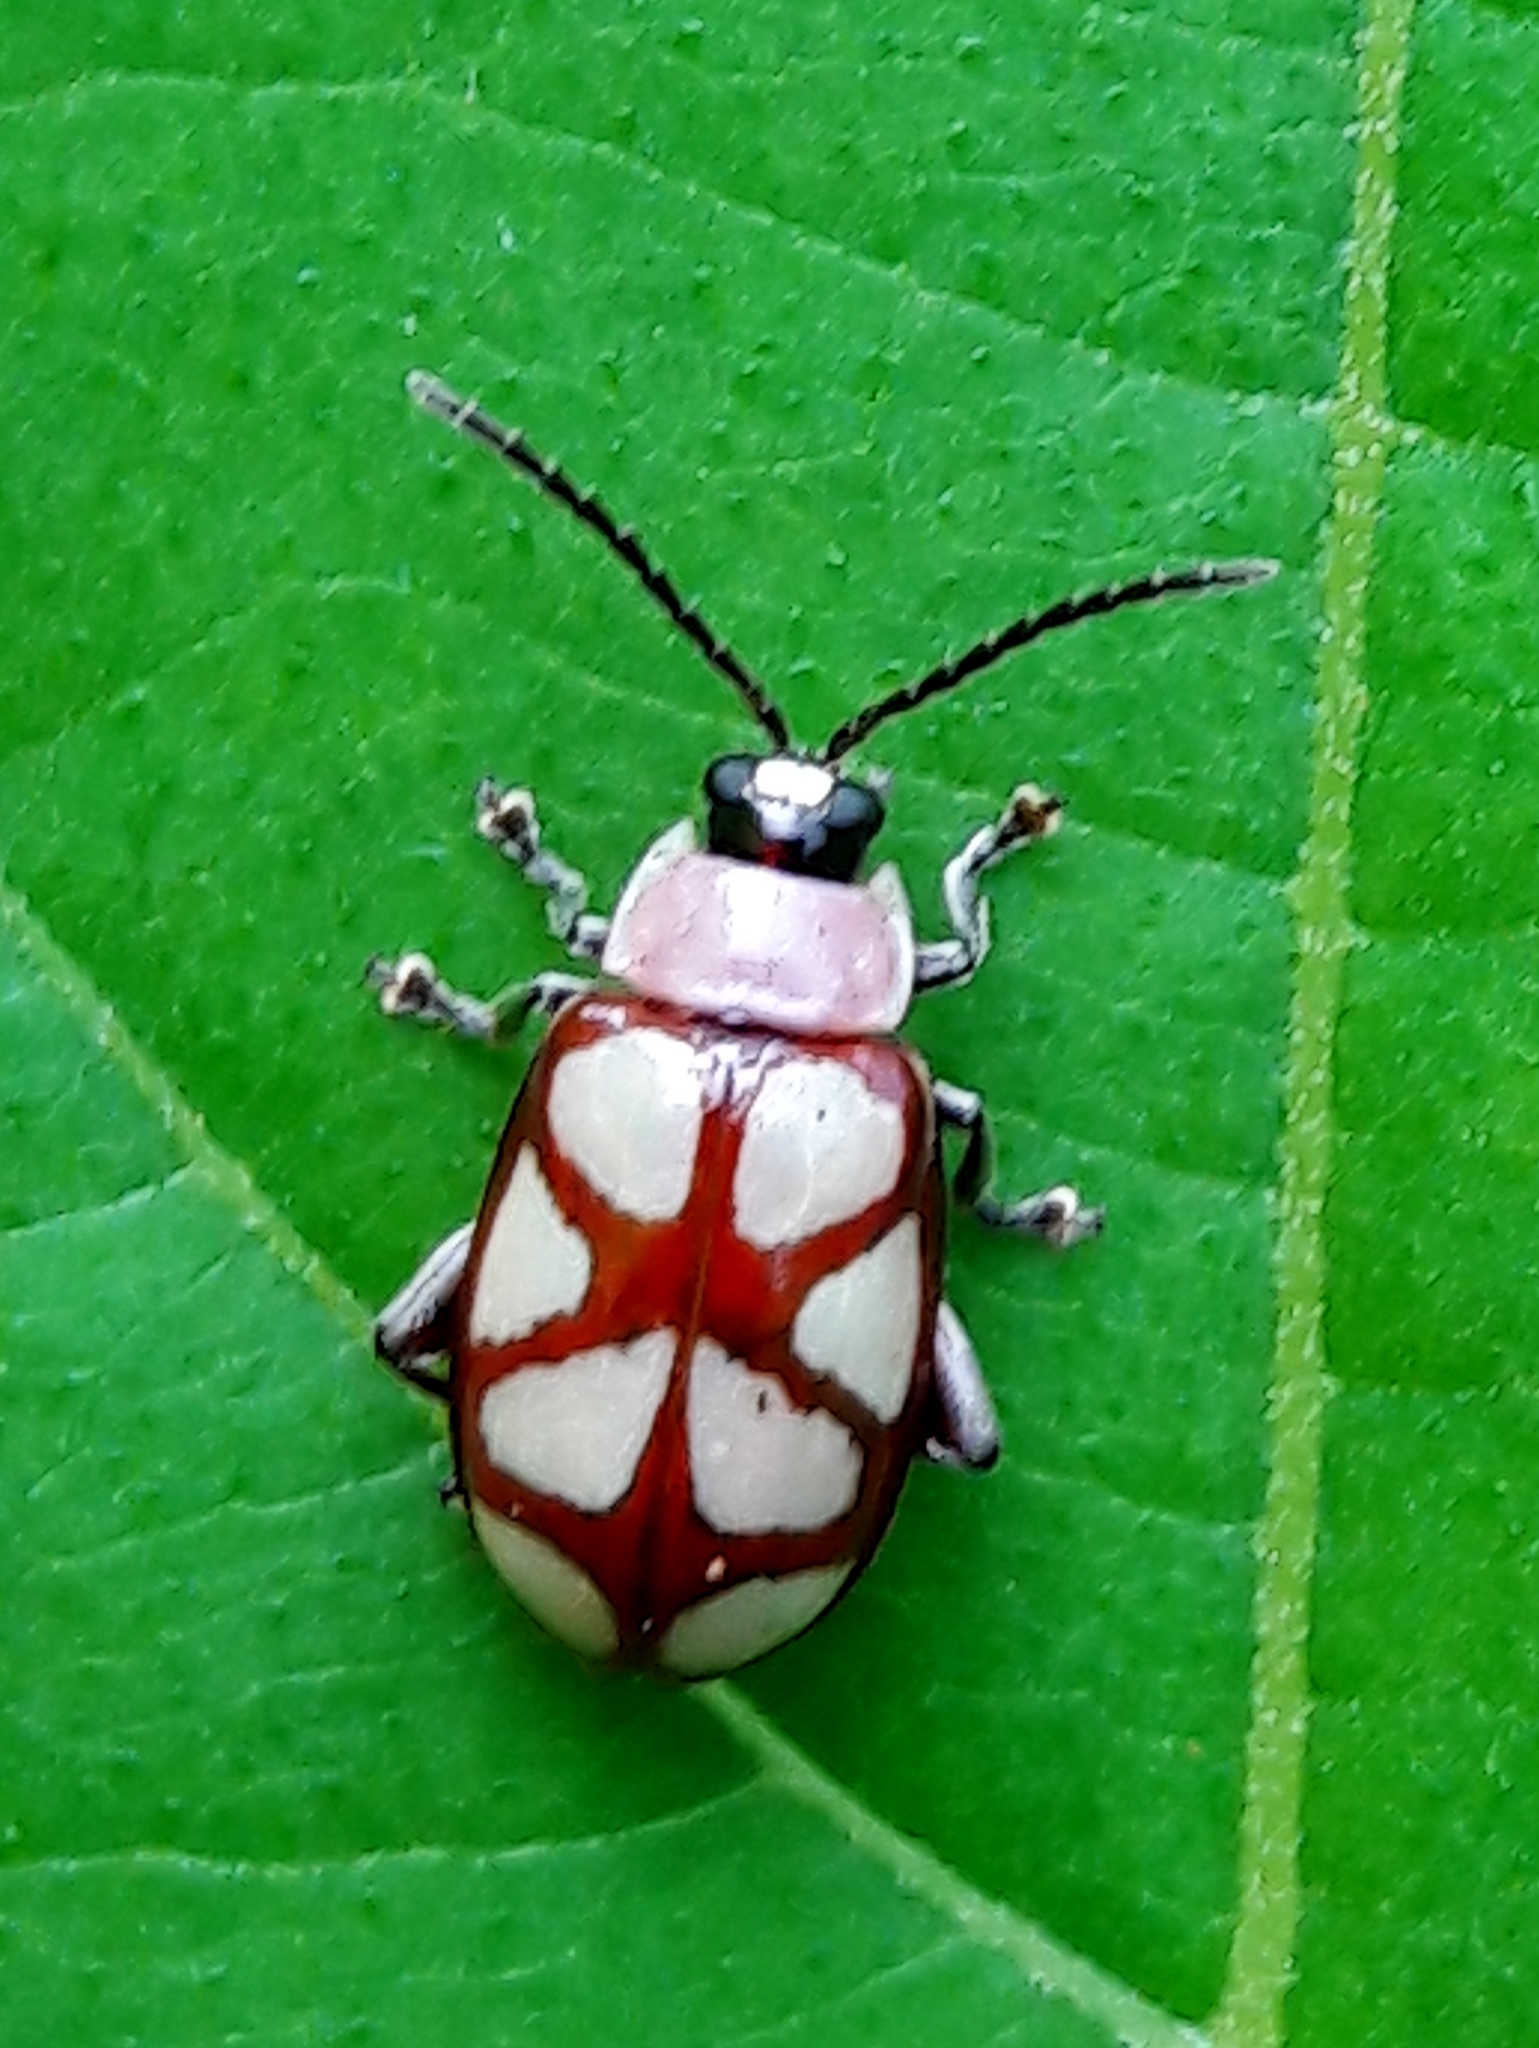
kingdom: Animalia
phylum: Arthropoda
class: Insecta
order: Coleoptera
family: Chrysomelidae
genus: Omophoita
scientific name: Omophoita
